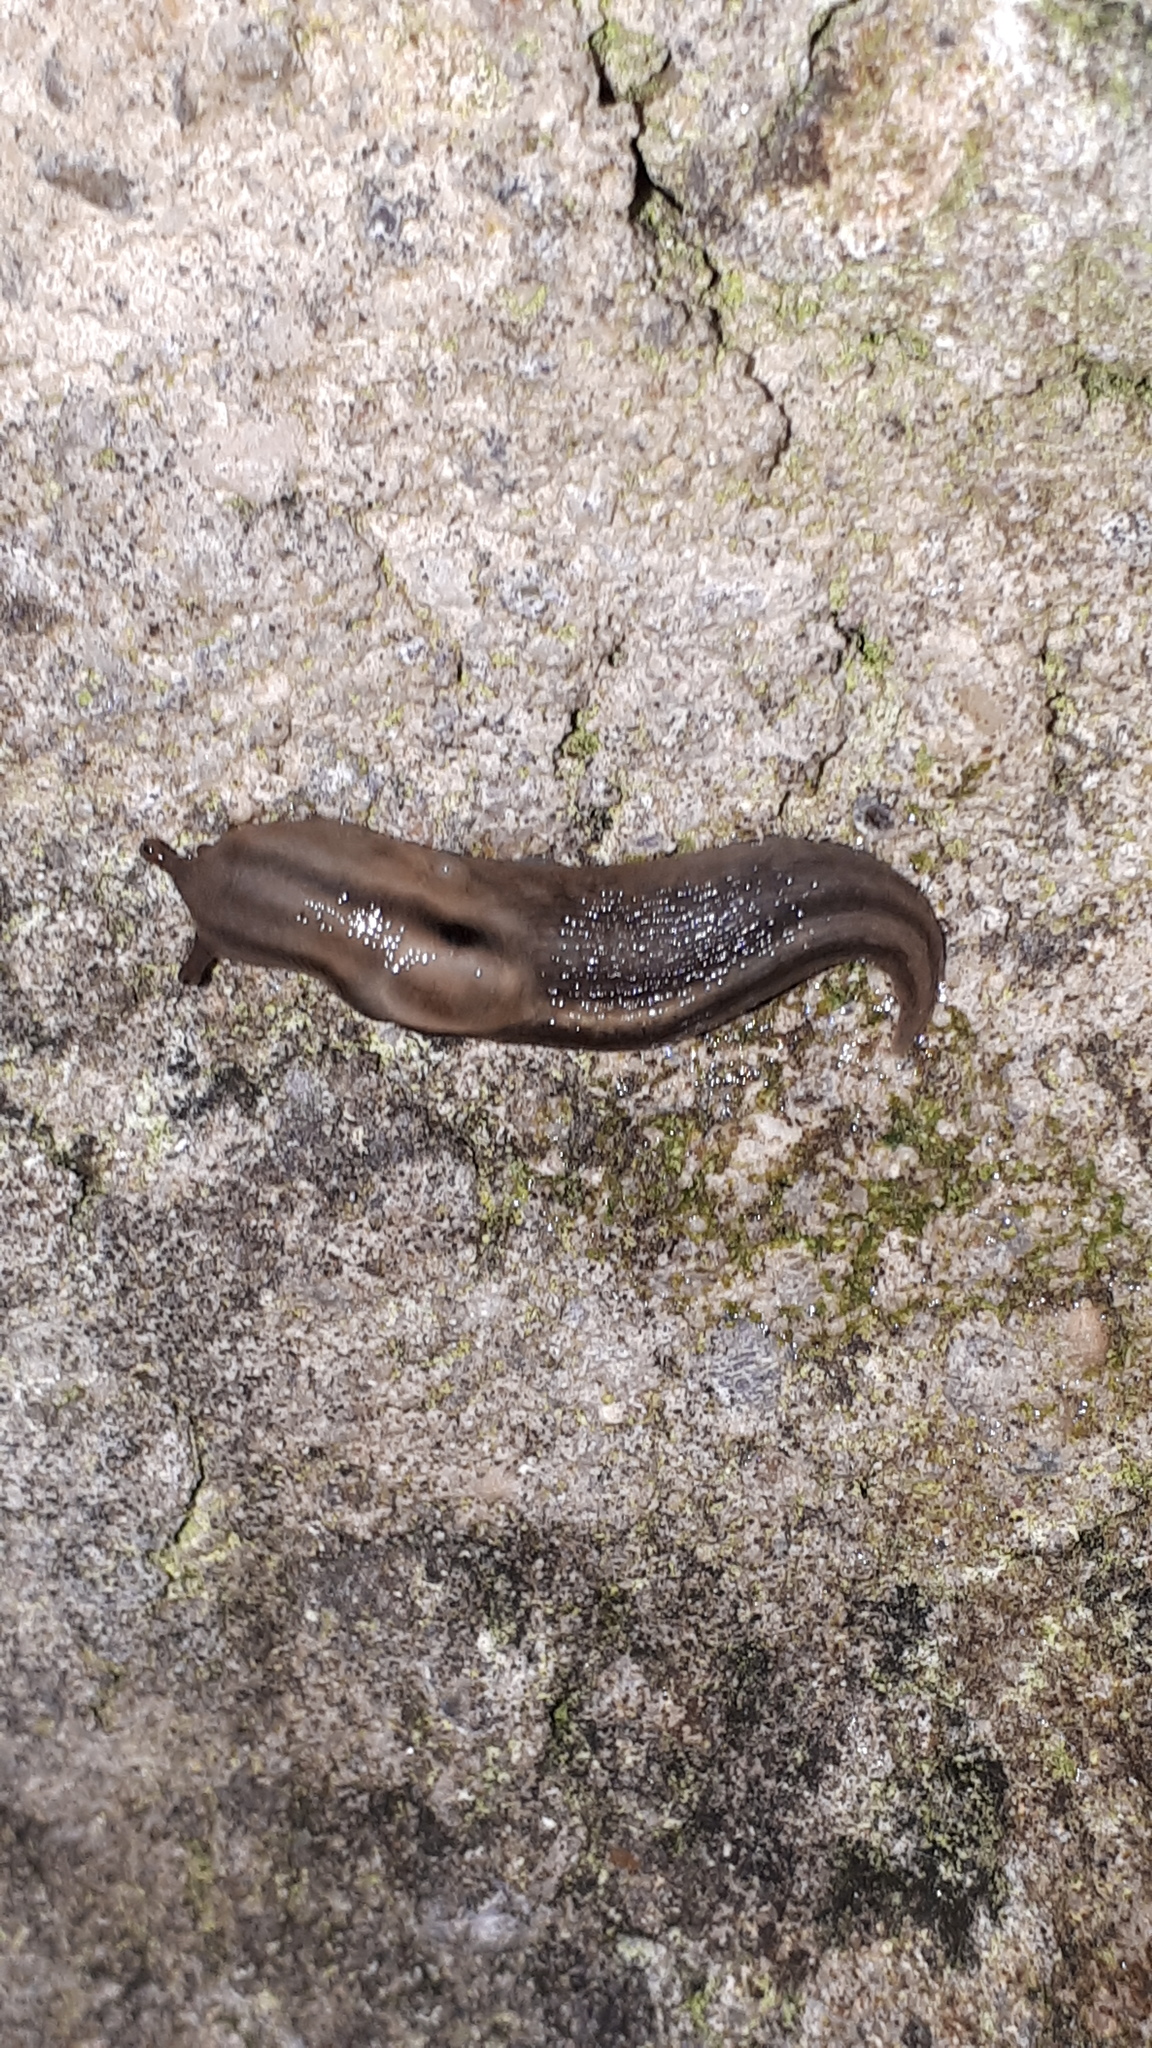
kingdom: Animalia
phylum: Mollusca
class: Gastropoda
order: Stylommatophora
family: Limacidae
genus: Lehmannia
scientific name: Lehmannia marginata
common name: Tree slug
